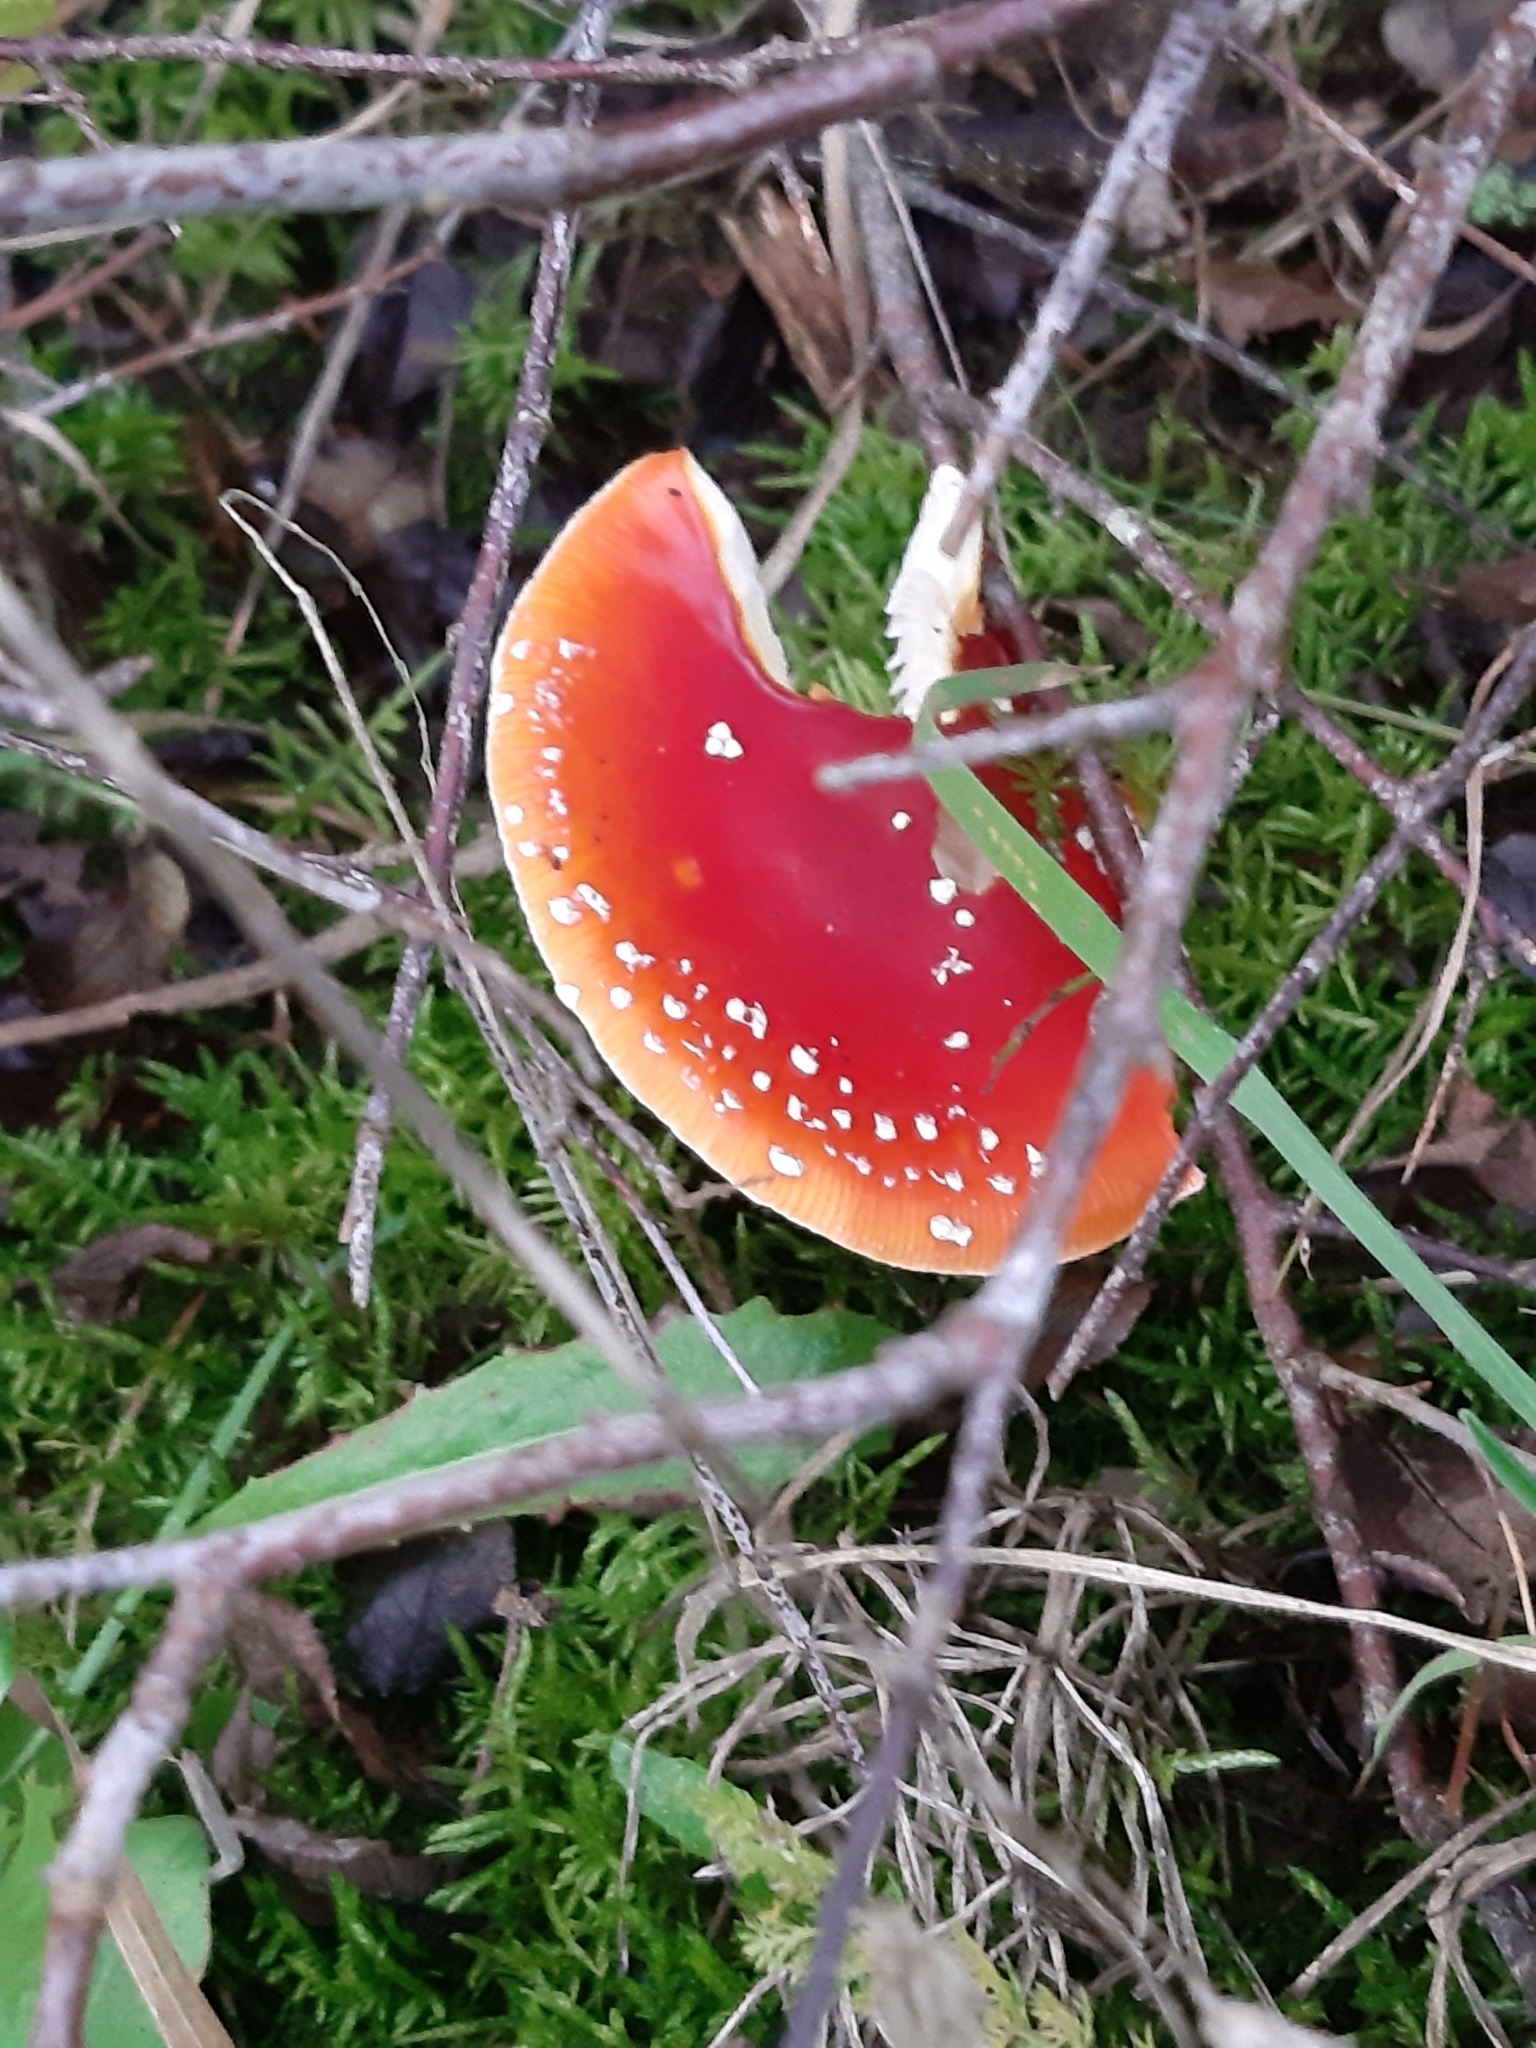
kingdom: Fungi
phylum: Basidiomycota
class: Agaricomycetes
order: Agaricales
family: Amanitaceae
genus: Amanita
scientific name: Amanita muscaria
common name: Fly agaric
